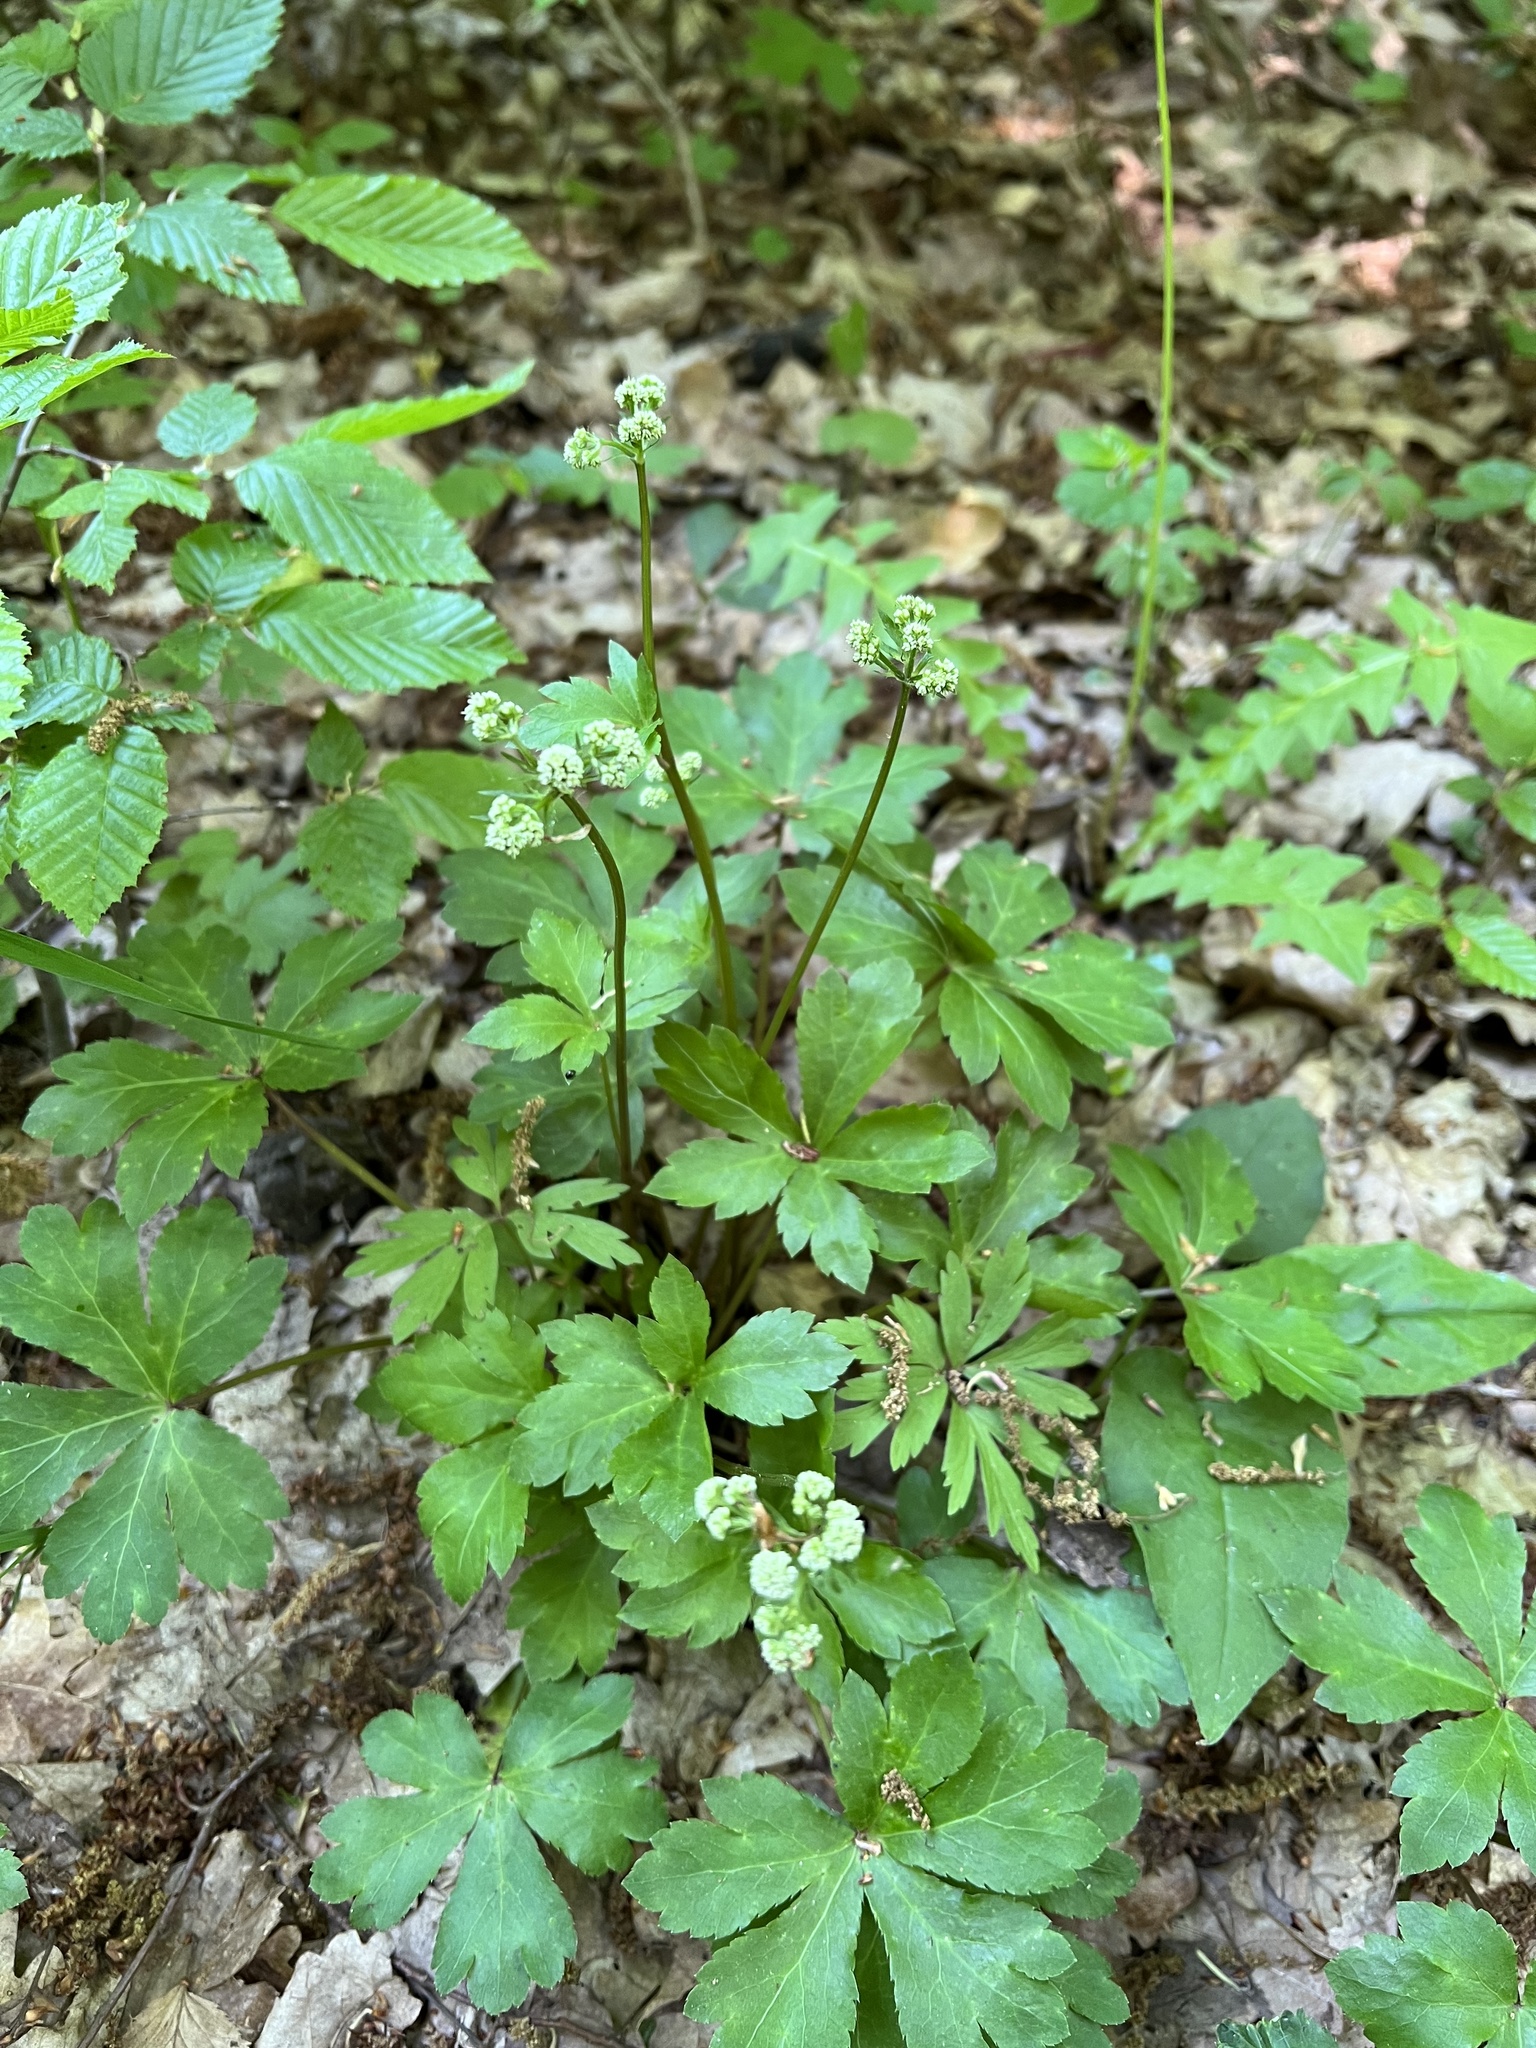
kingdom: Plantae
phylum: Tracheophyta
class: Magnoliopsida
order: Apiales
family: Apiaceae
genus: Sanicula
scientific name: Sanicula europaea
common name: Sanicle
